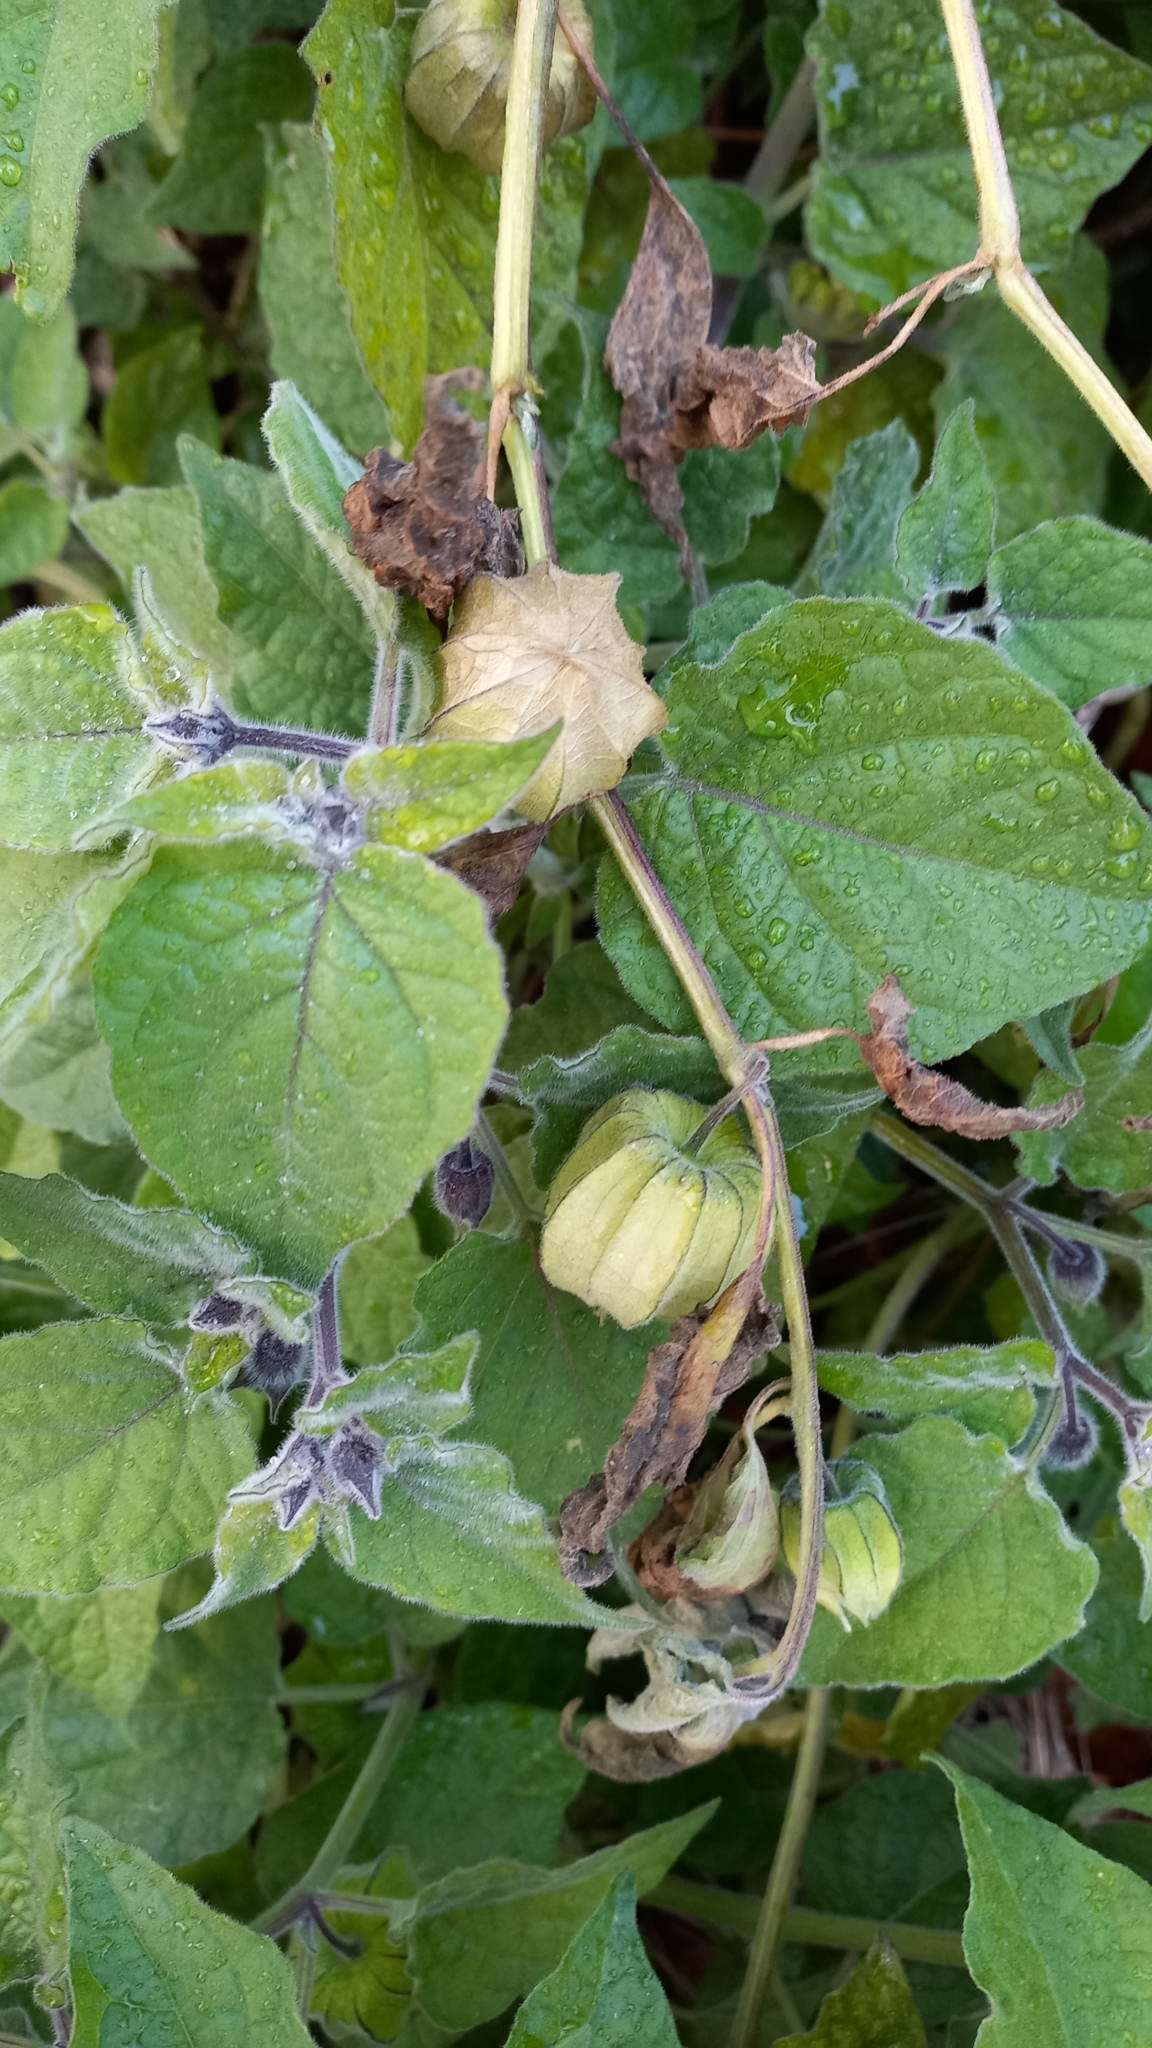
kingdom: Plantae
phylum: Tracheophyta
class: Magnoliopsida
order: Solanales
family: Solanaceae
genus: Physalis
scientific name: Physalis peruviana
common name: Cape-gooseberry
